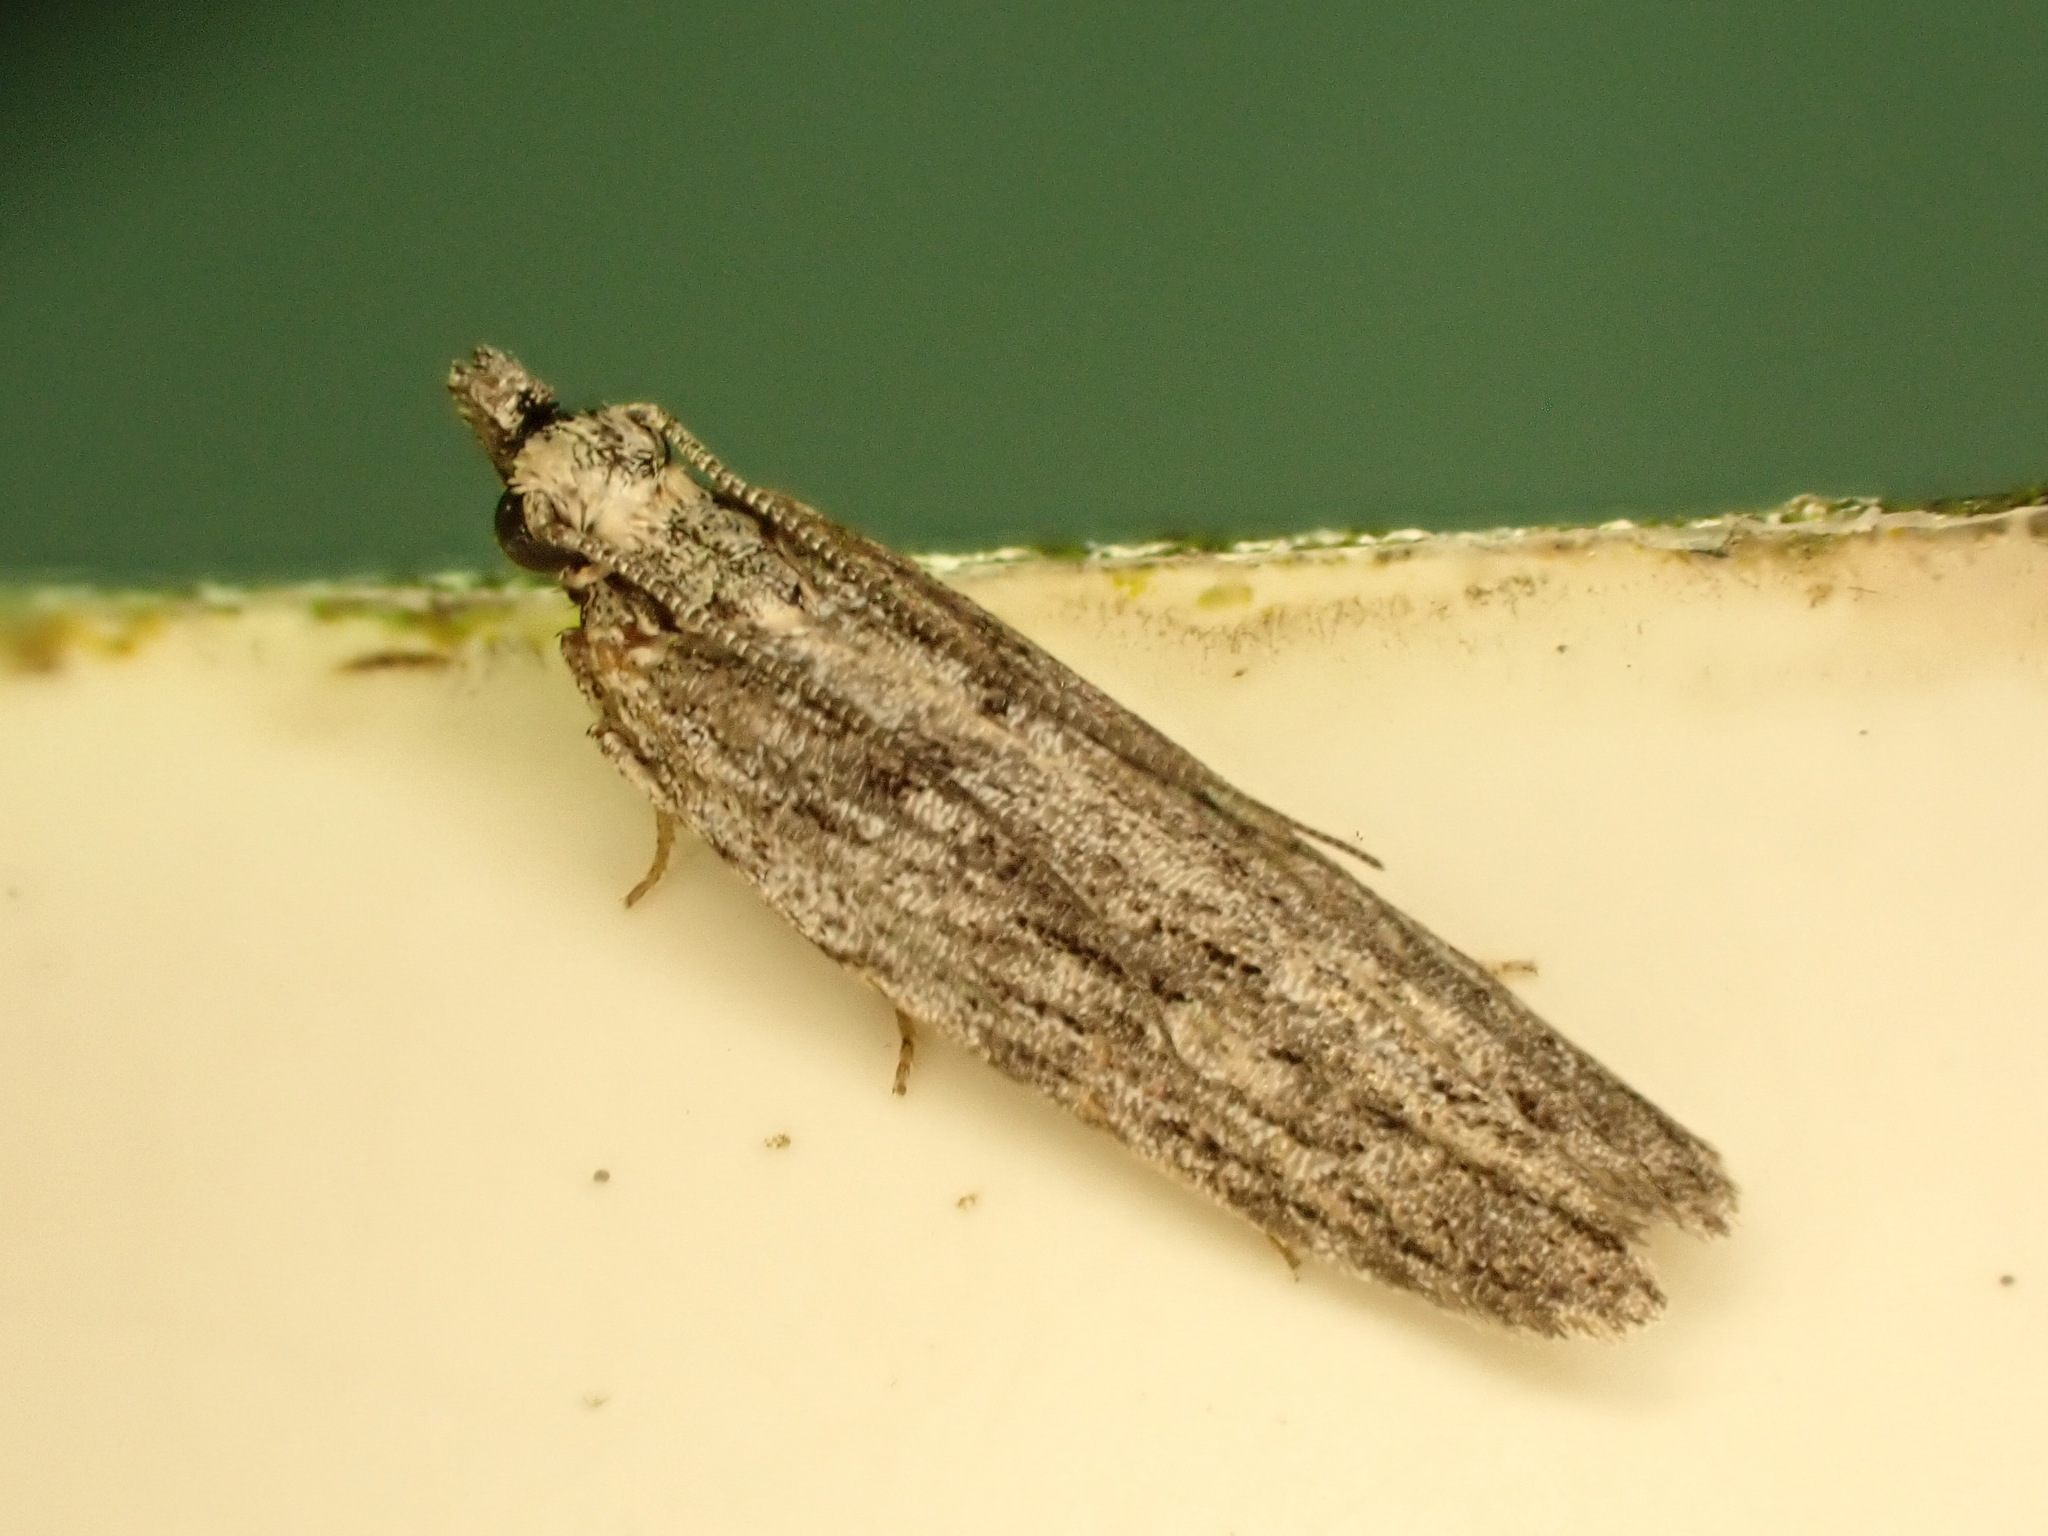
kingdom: Animalia
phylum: Arthropoda
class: Insecta
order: Lepidoptera
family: Gelechiidae
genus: Anarsia
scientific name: Anarsia dryinopa
